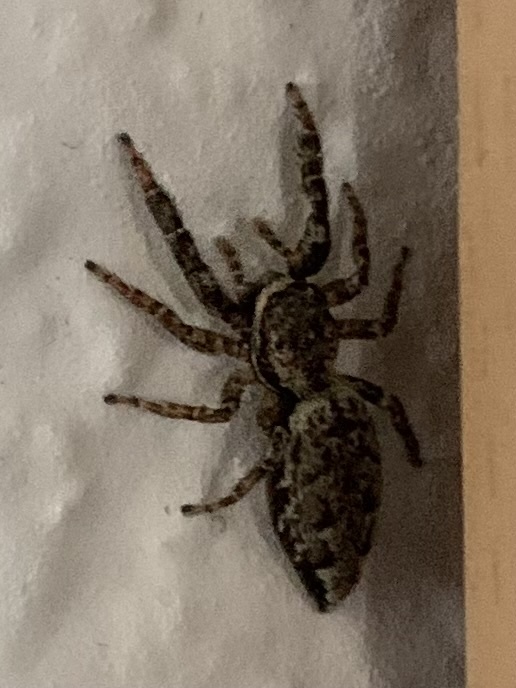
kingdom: Animalia
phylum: Arthropoda
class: Arachnida
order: Araneae
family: Salticidae
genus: Marpissa
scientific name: Marpissa muscosa
